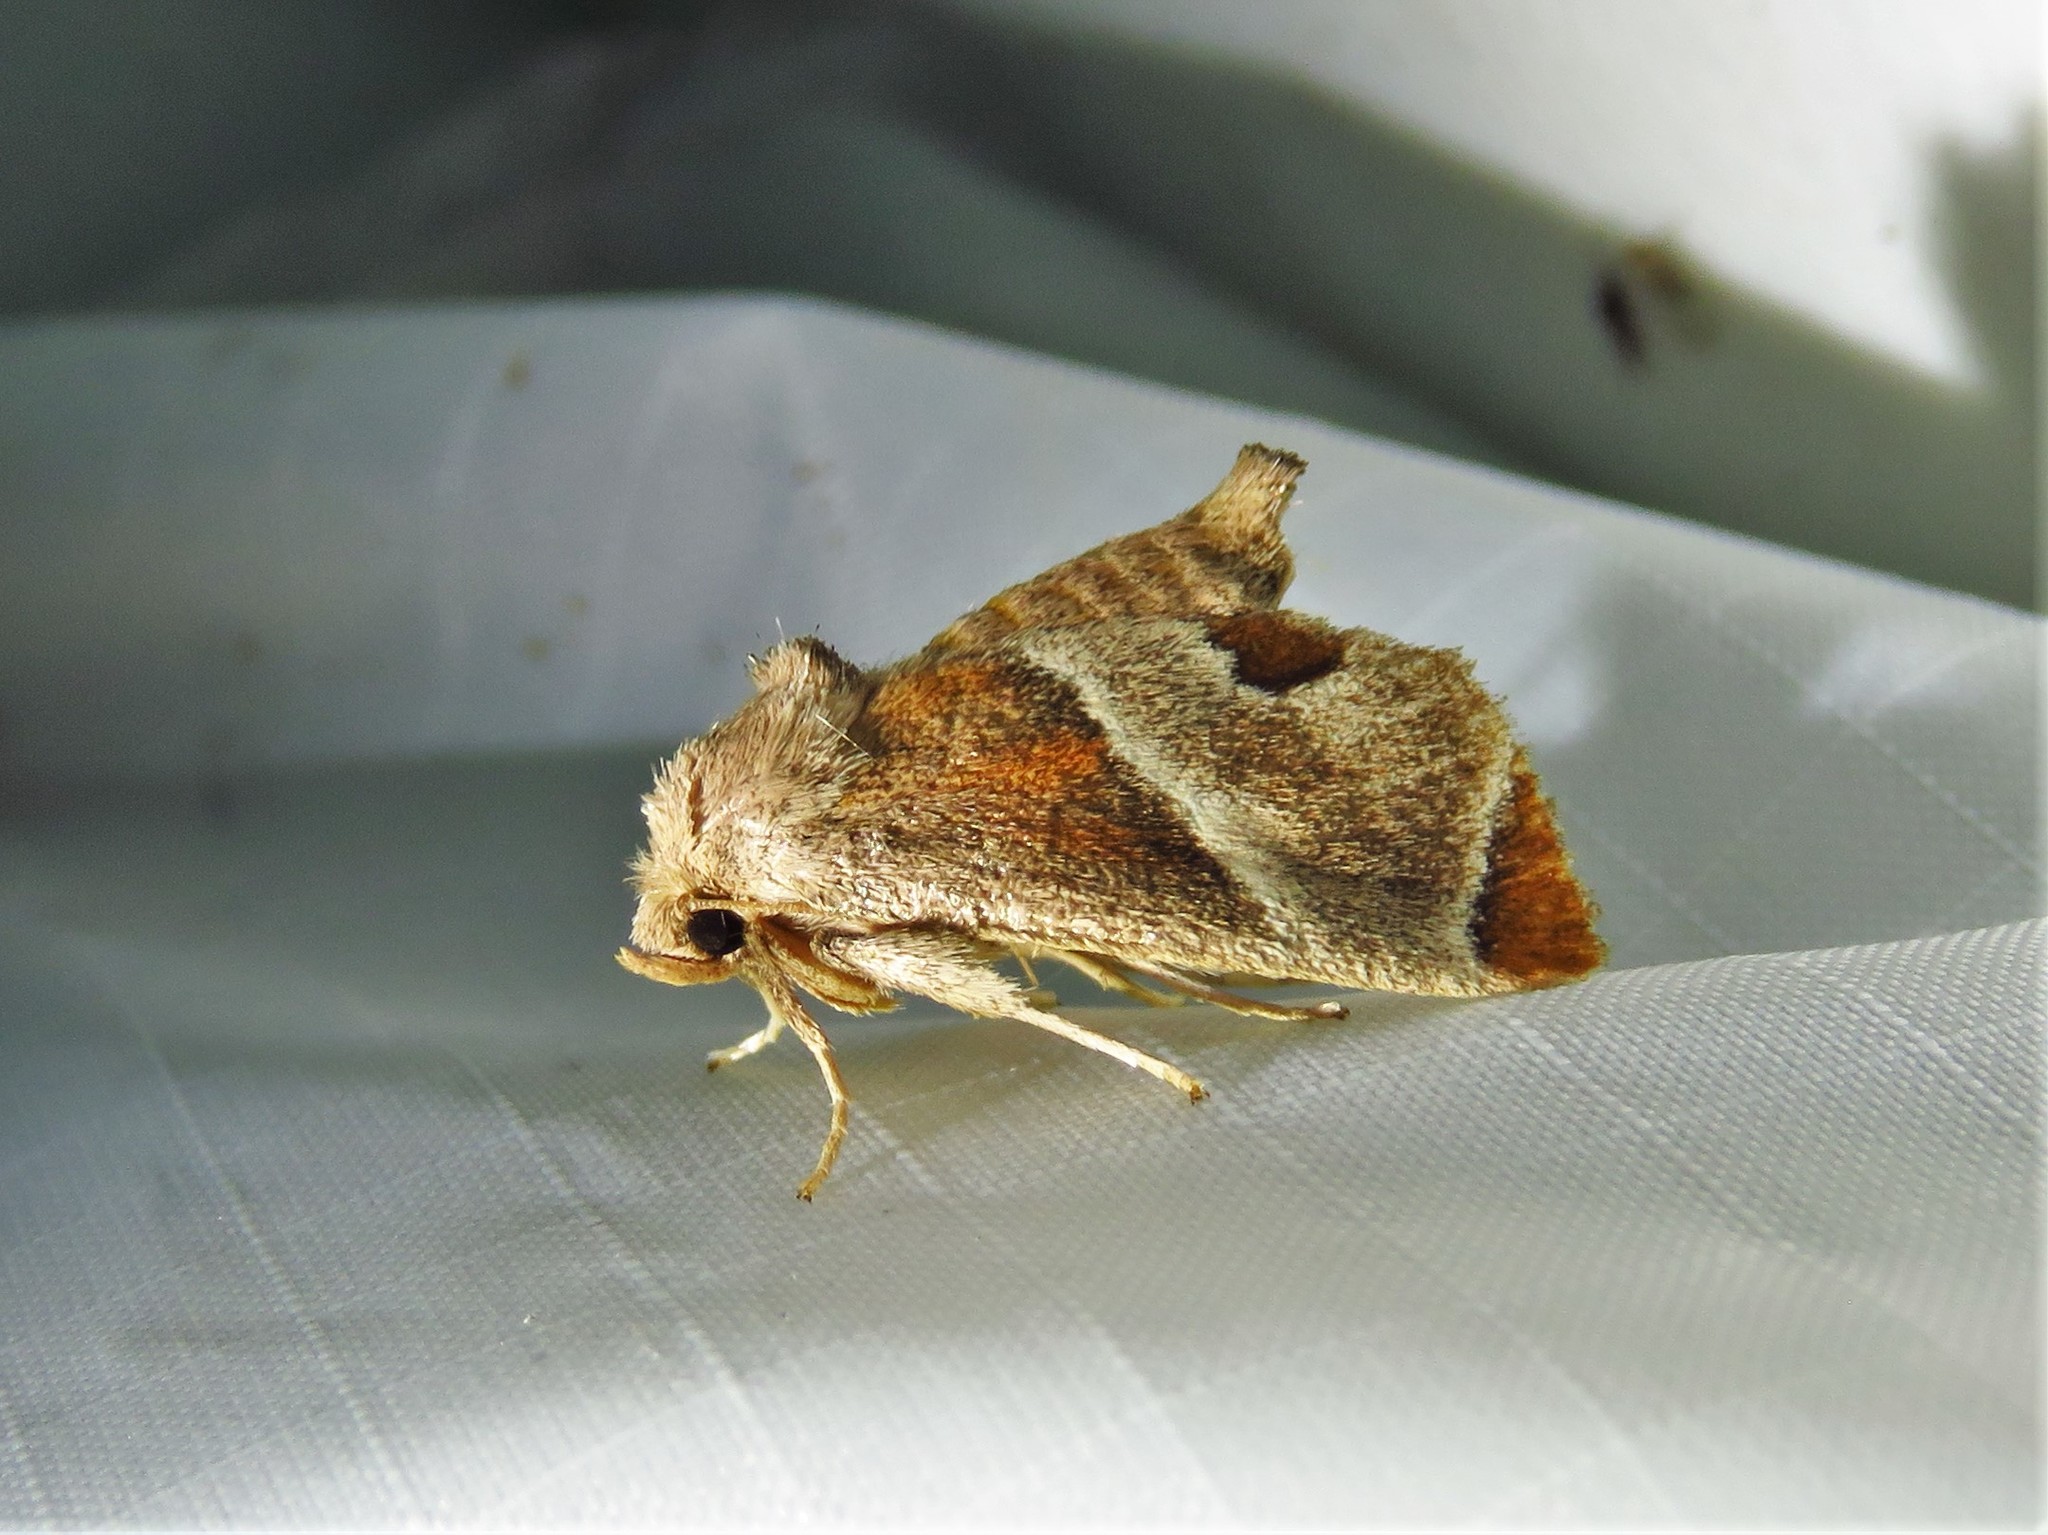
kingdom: Animalia
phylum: Arthropoda
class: Insecta
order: Lepidoptera
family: Limacodidae
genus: Apoda
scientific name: Apoda biguttata
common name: Shagreened slug moth
